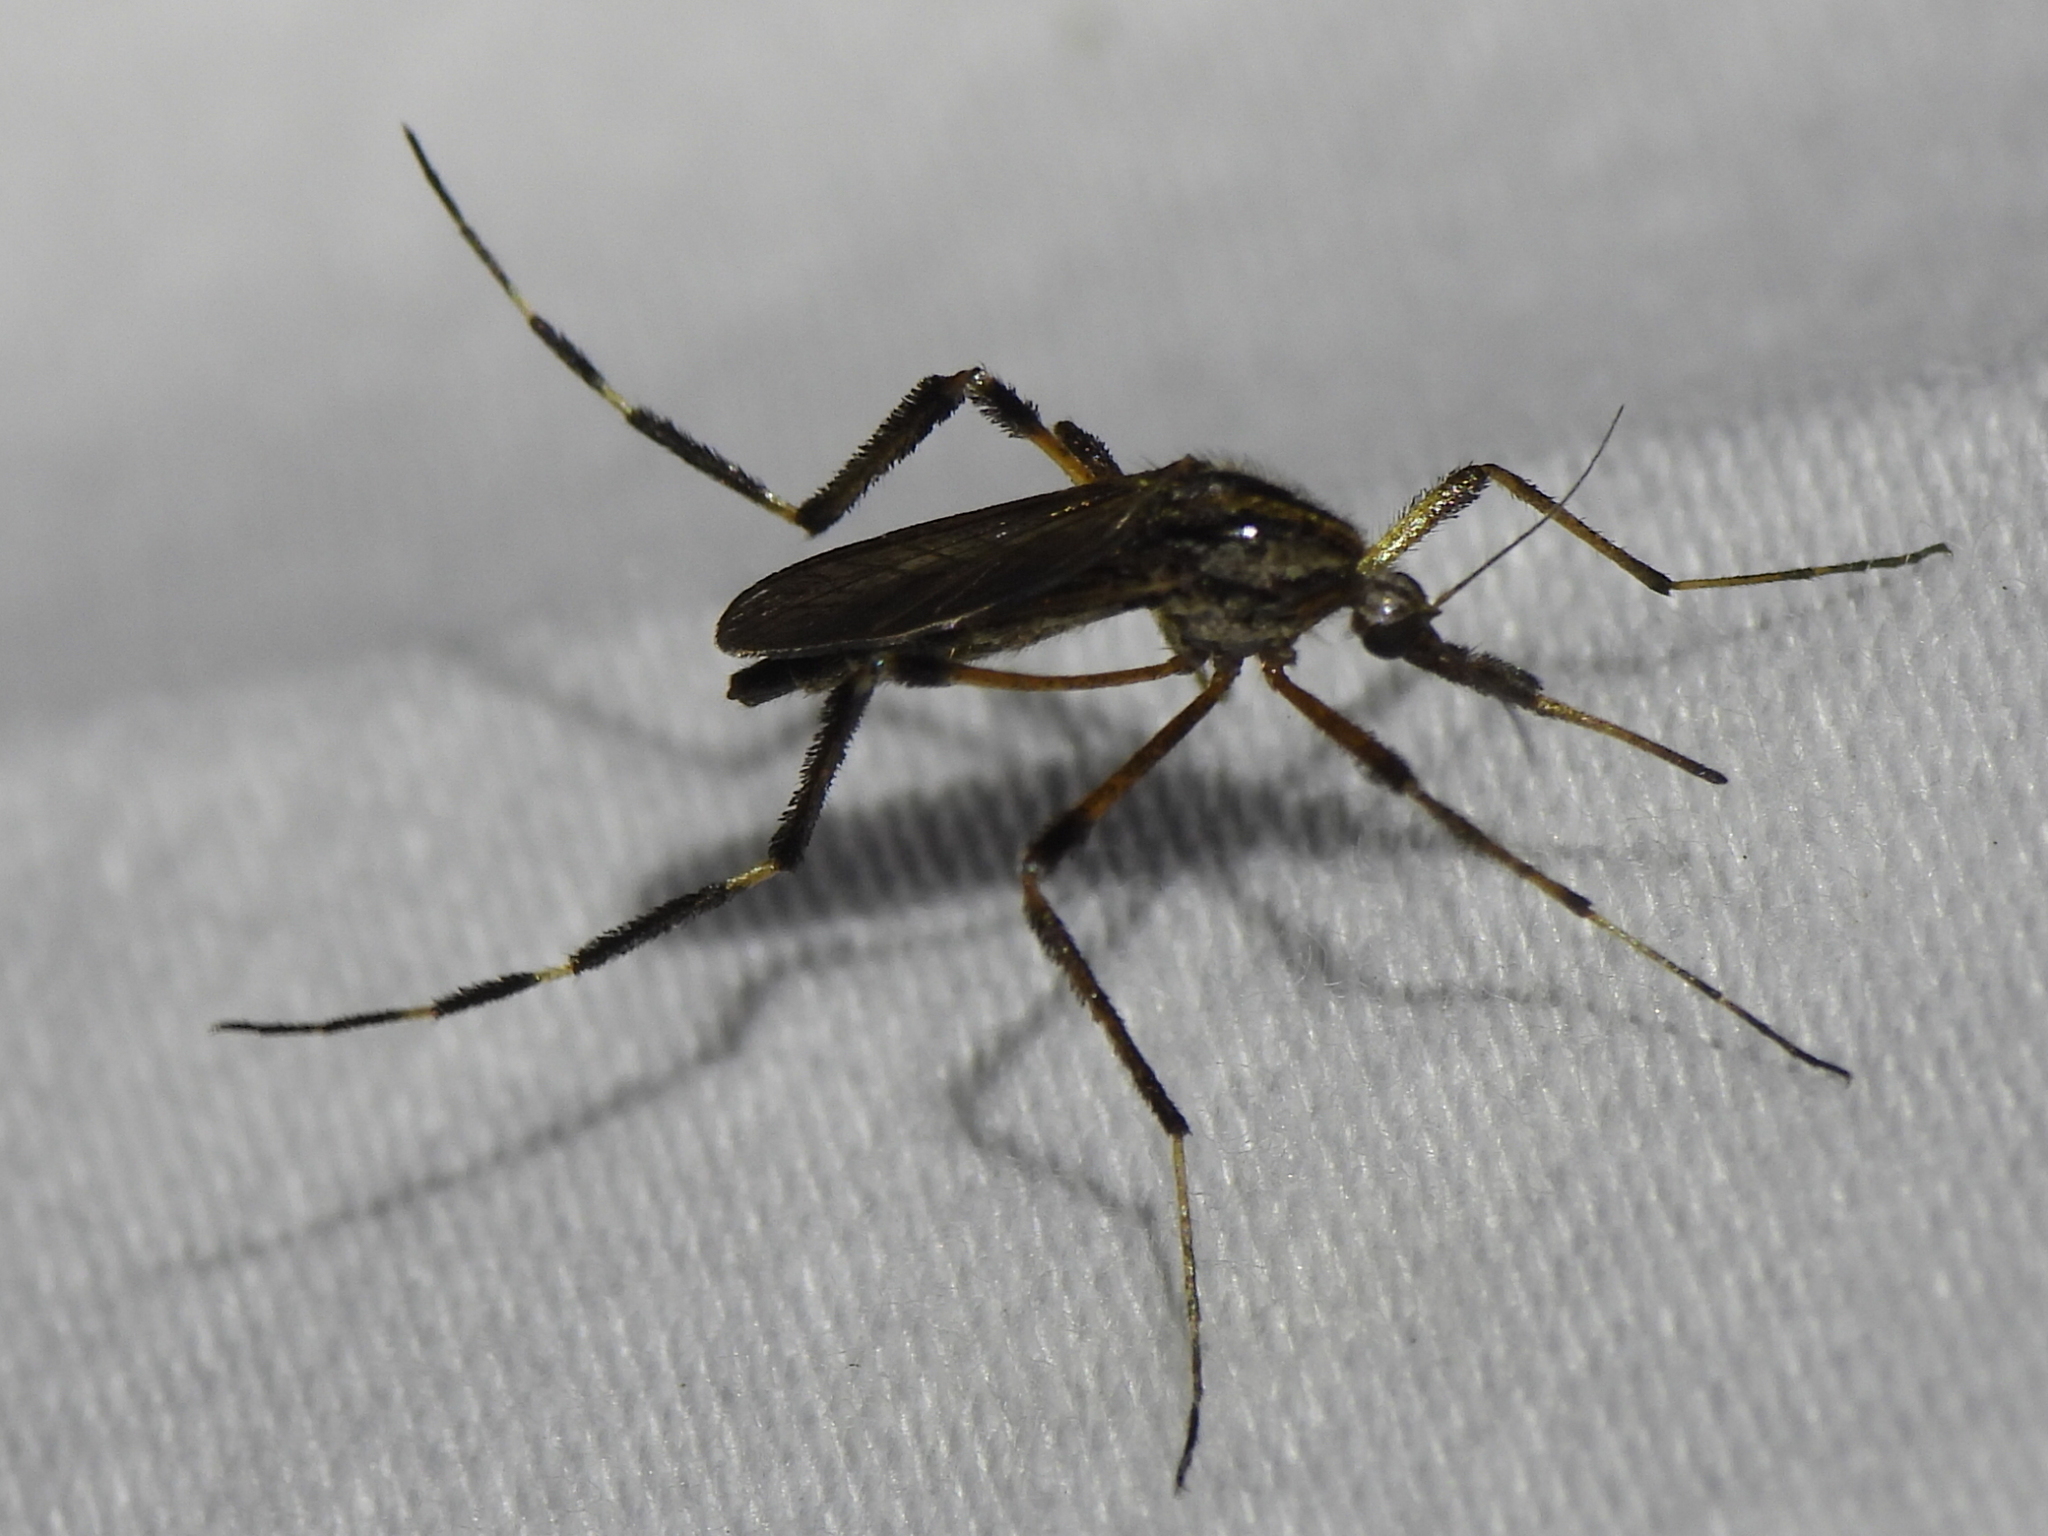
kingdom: Animalia
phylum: Arthropoda
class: Insecta
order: Diptera
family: Culicidae
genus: Psorophora
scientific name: Psorophora ciliata
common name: Gallinipper
